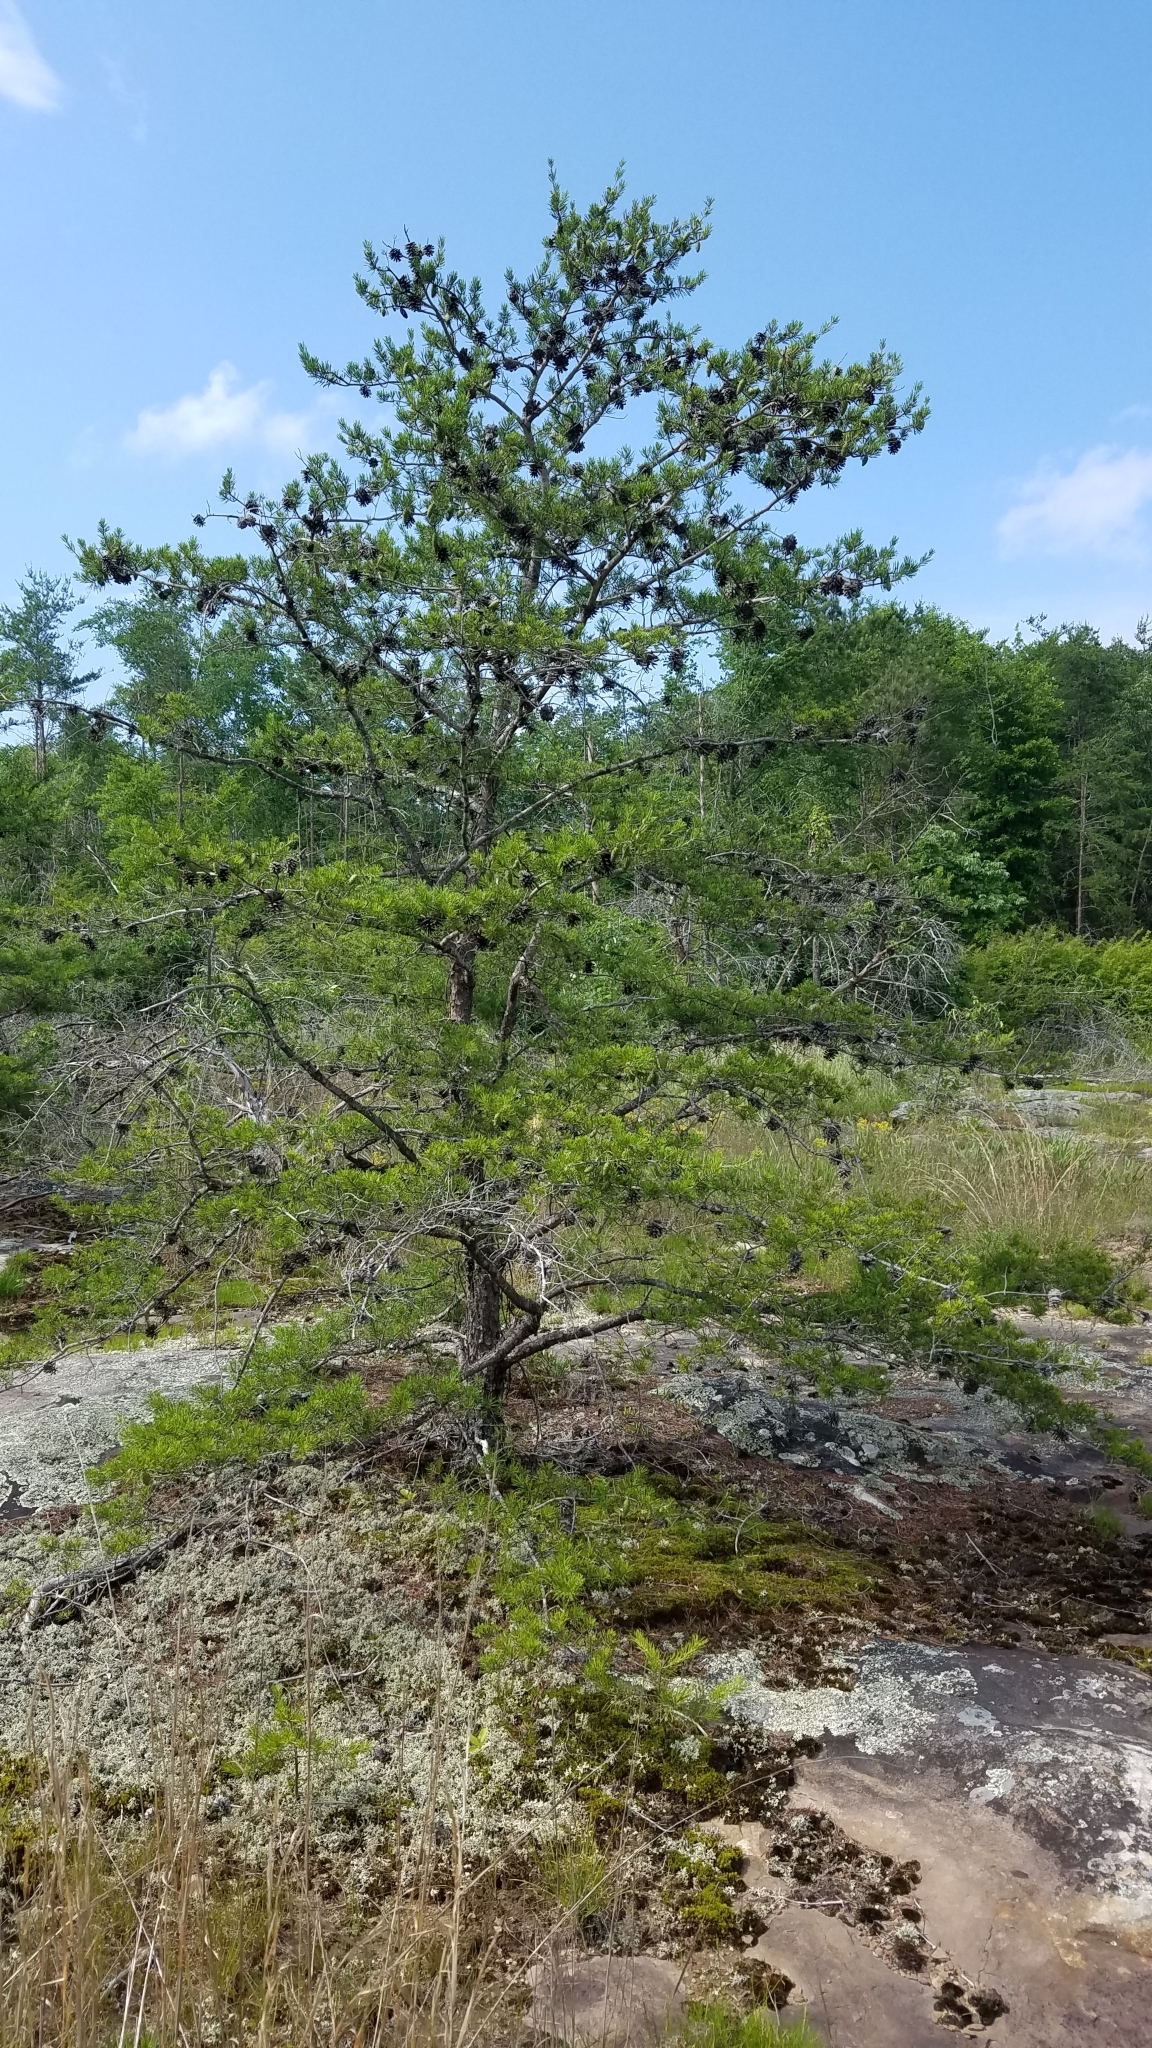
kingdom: Plantae
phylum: Tracheophyta
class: Pinopsida
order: Pinales
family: Pinaceae
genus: Pinus
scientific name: Pinus virginiana
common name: Scrub pine
